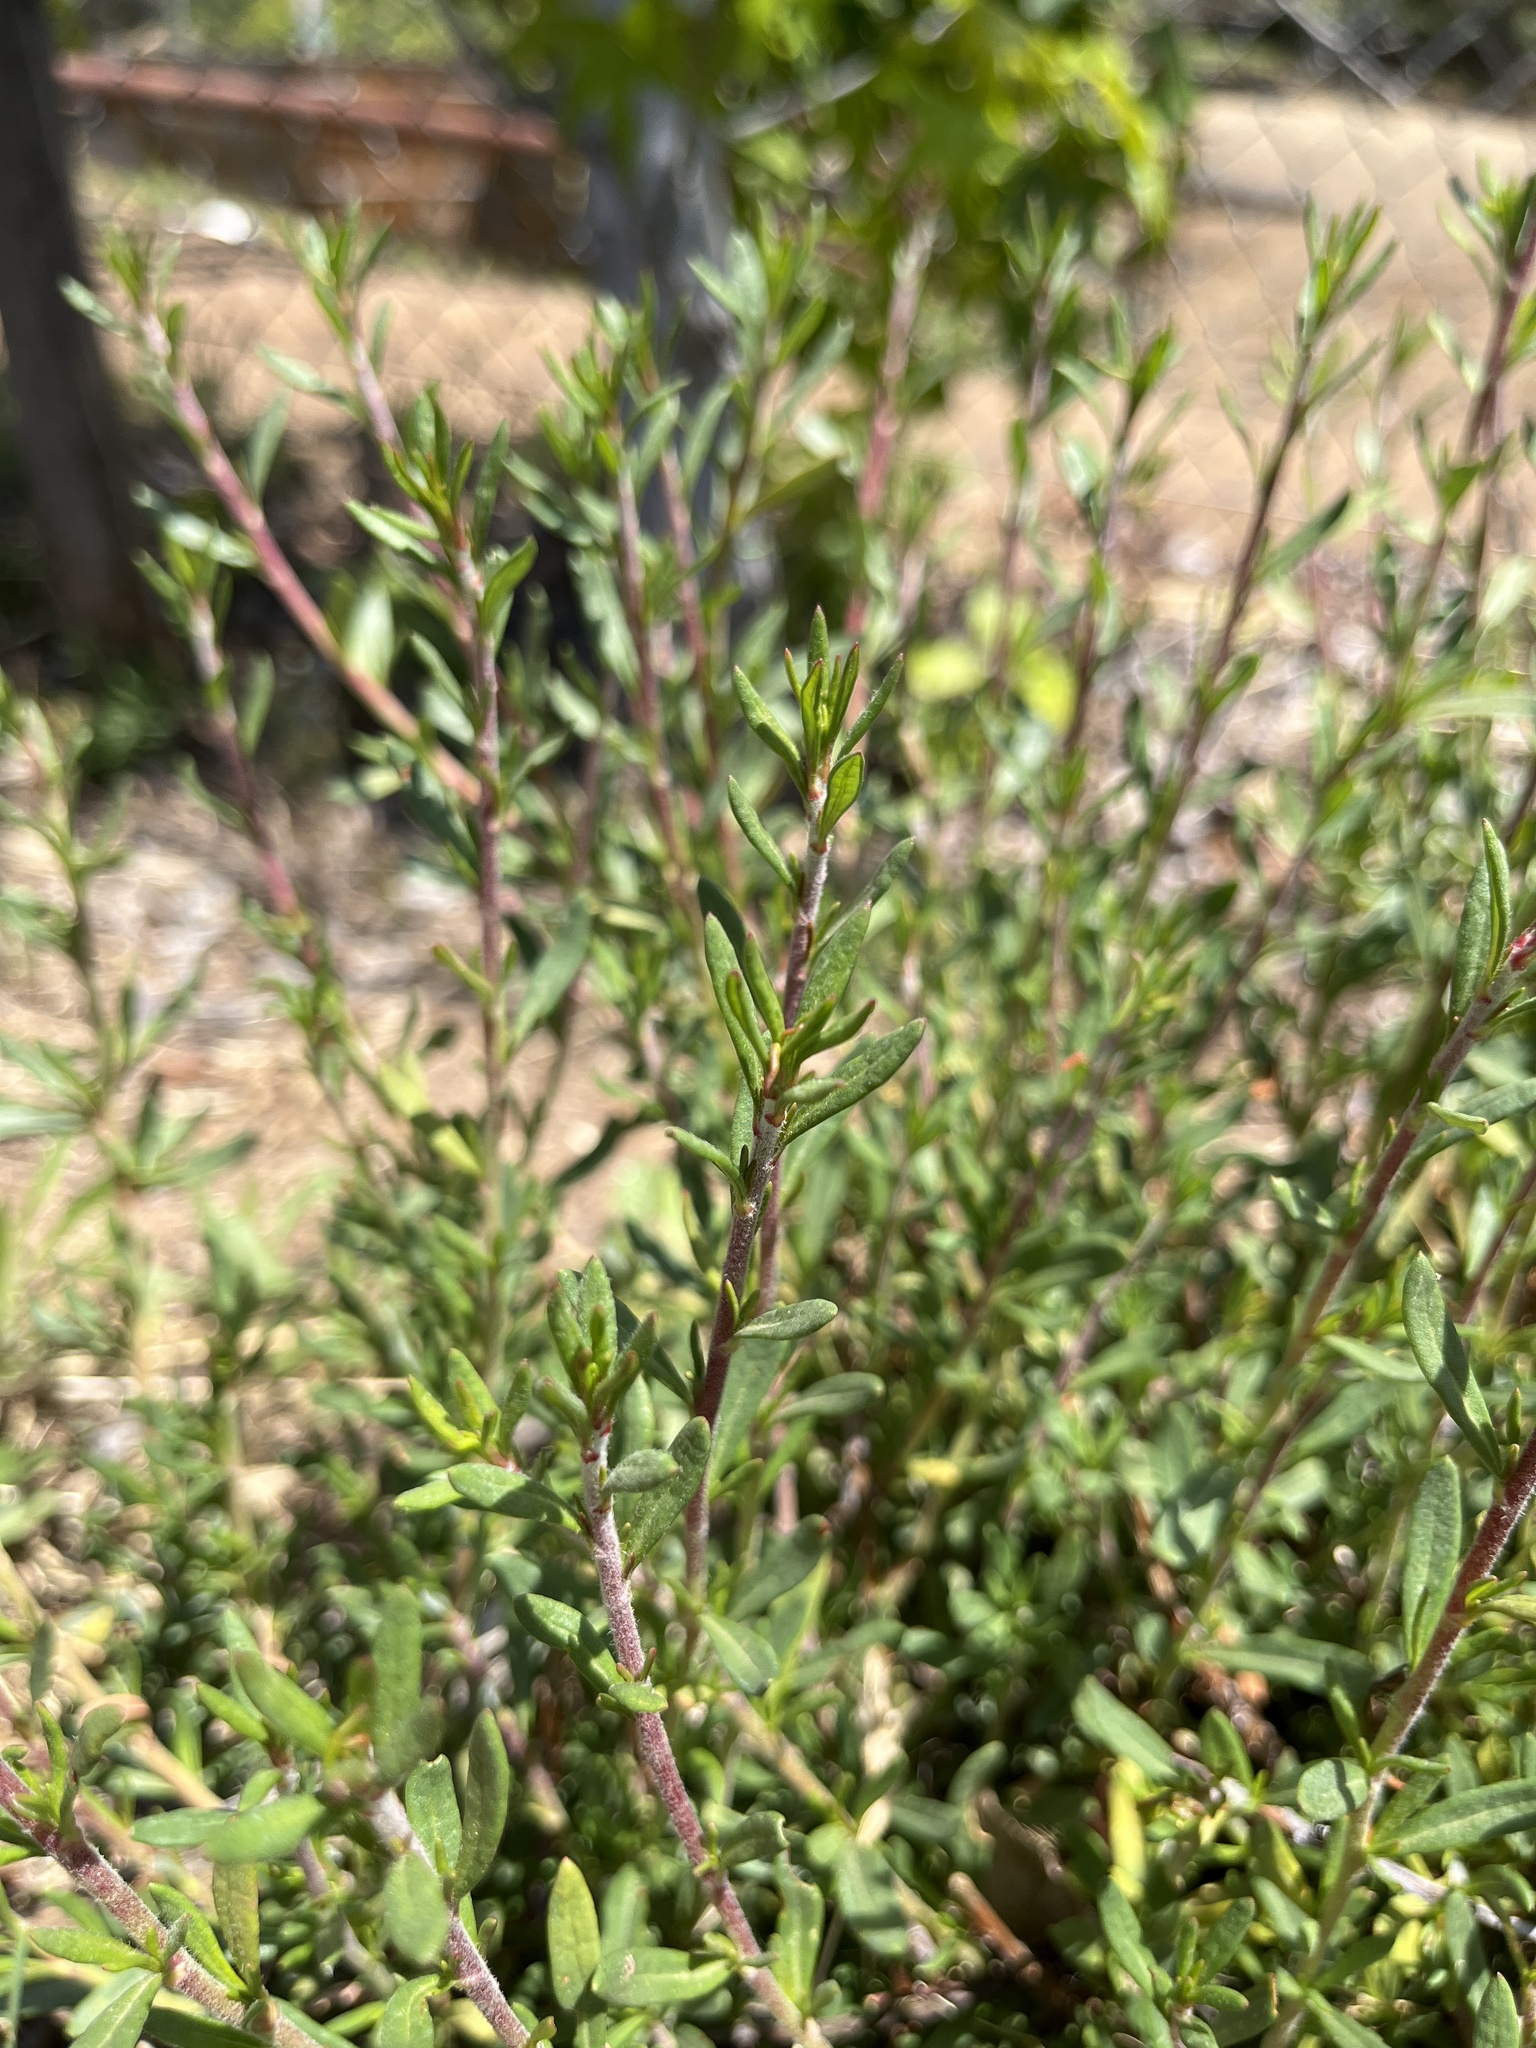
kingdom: Plantae
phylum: Tracheophyta
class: Magnoliopsida
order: Caryophyllales
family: Polygonaceae
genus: Eriogonum
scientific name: Eriogonum fasciculatum
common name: California wild buckwheat
